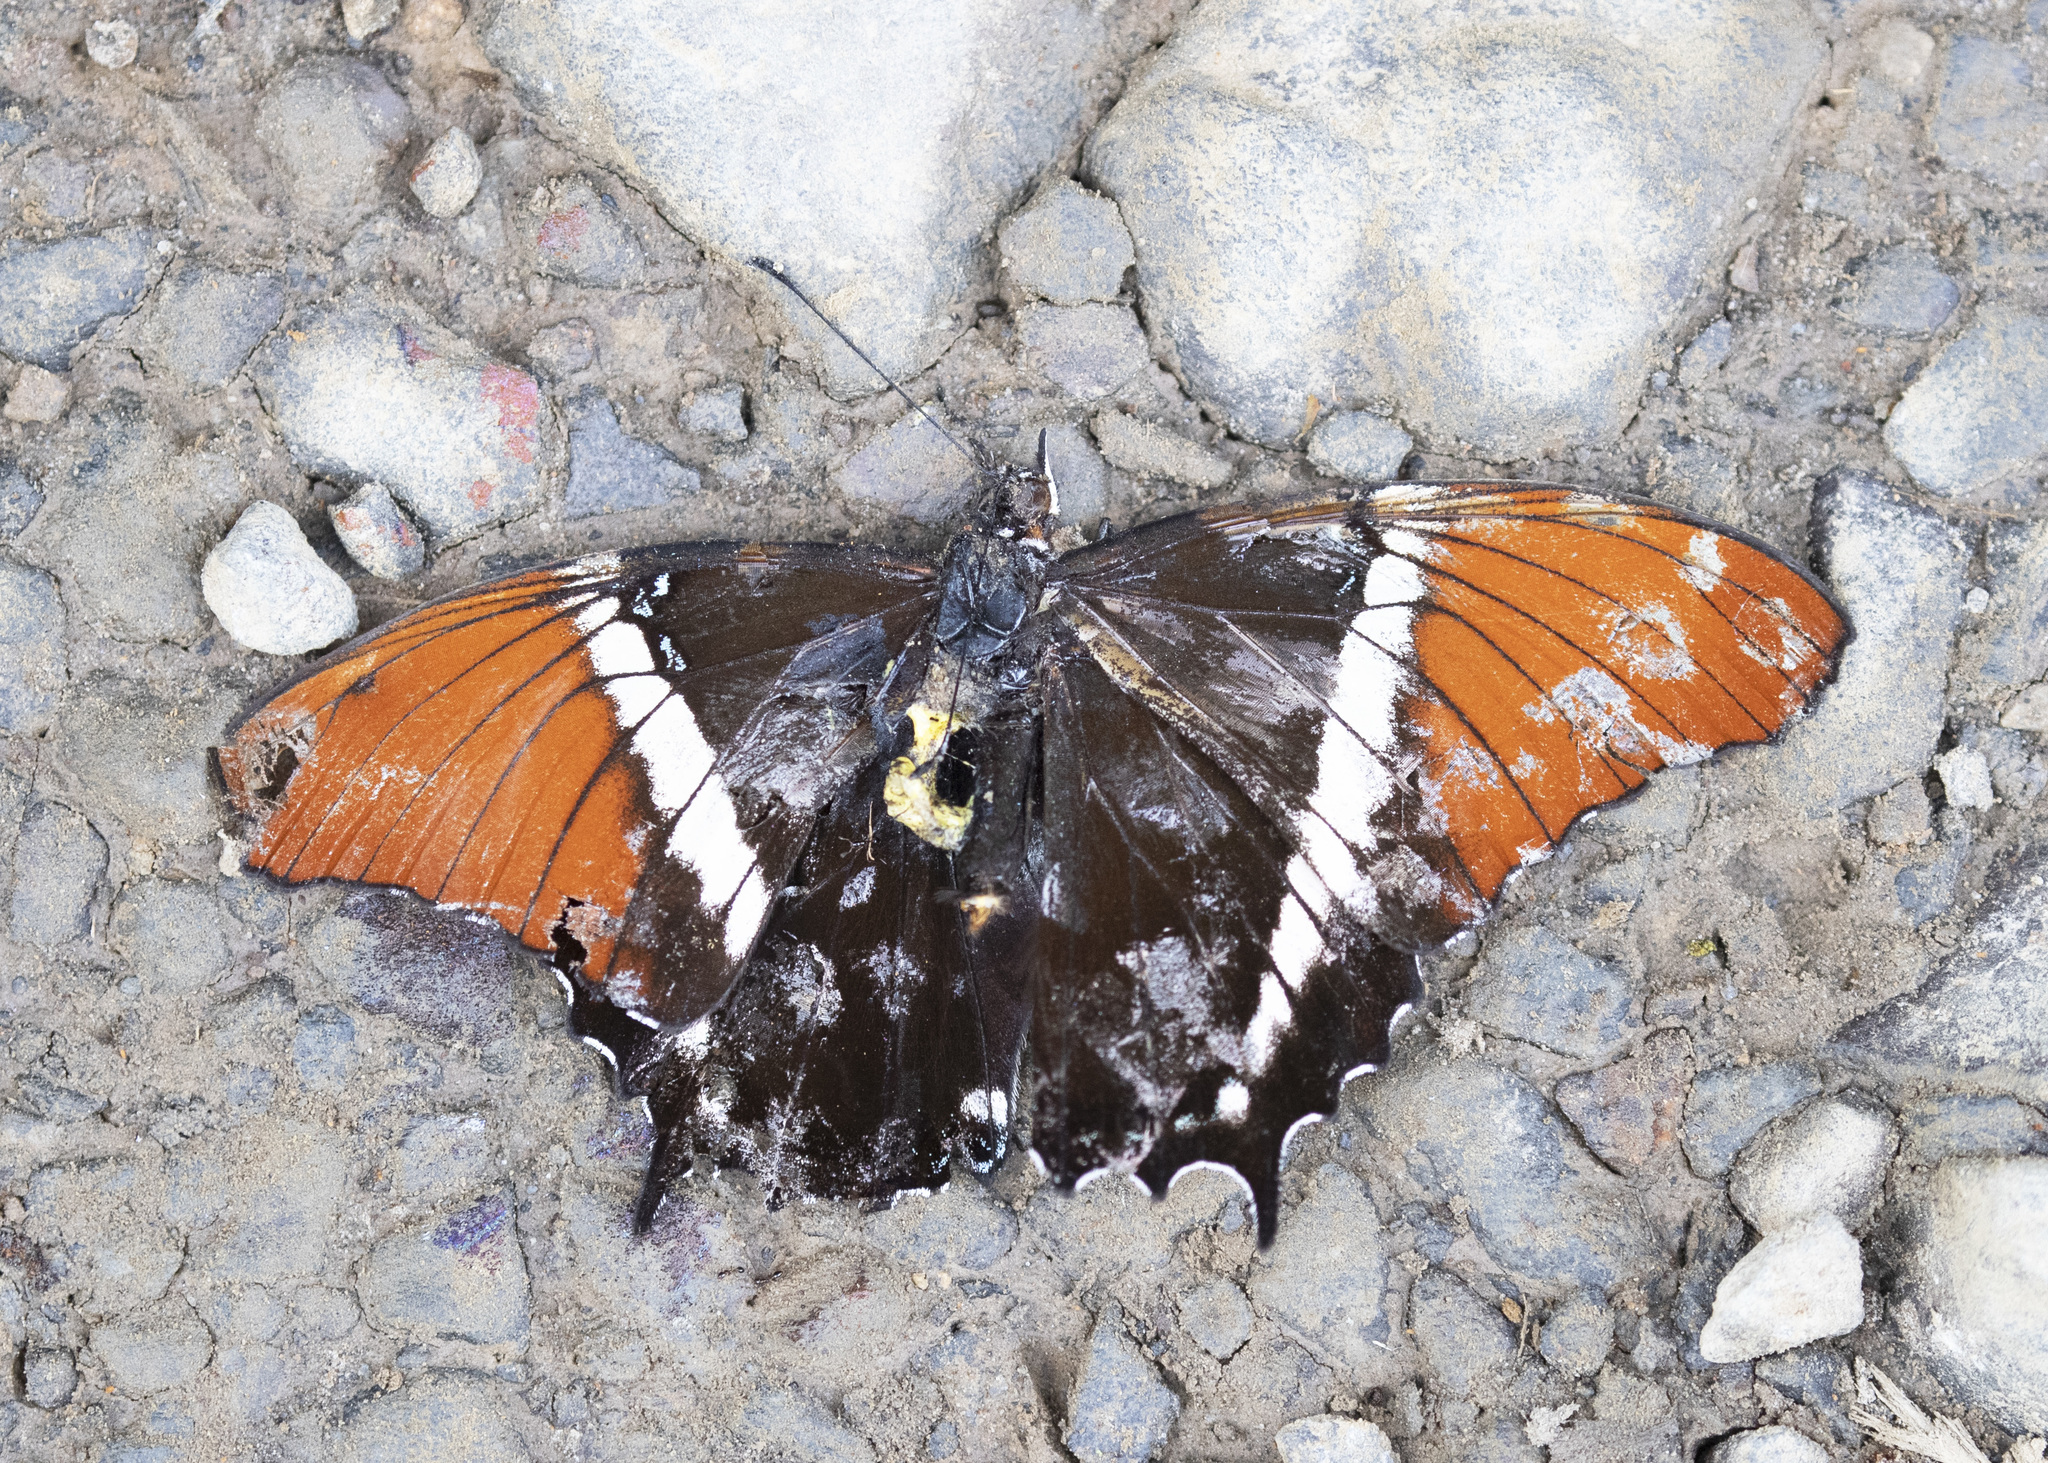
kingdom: Animalia
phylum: Arthropoda
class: Insecta
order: Lepidoptera
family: Nymphalidae
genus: Siproeta
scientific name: Siproeta epaphus
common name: Rusty-tipped page
